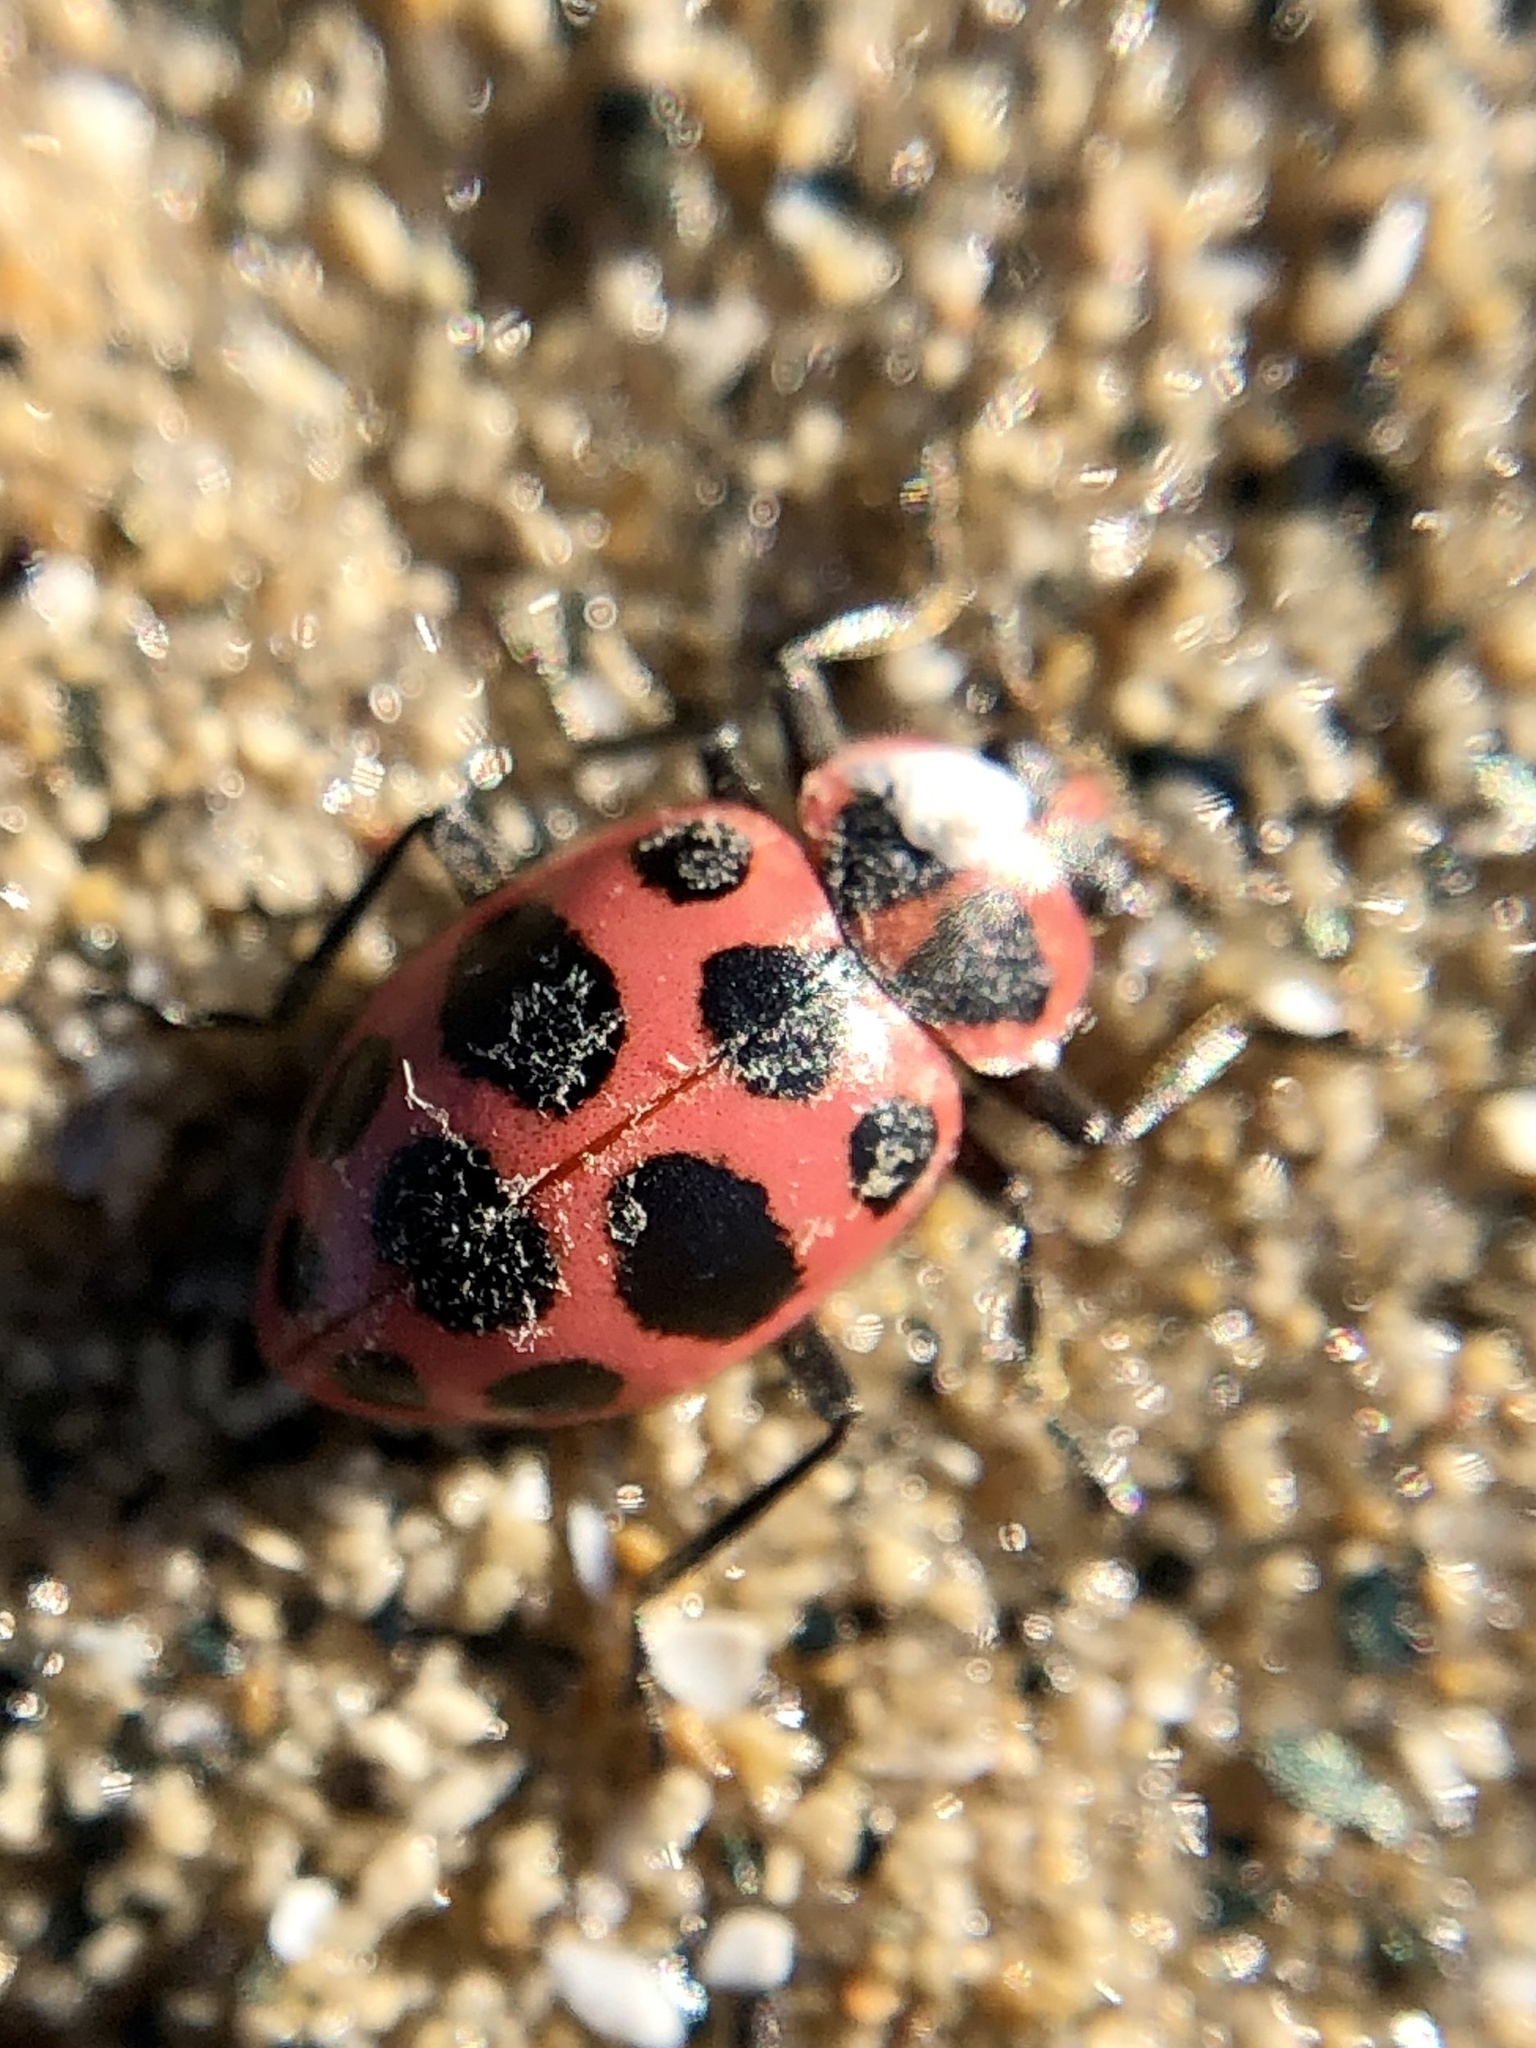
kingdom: Animalia
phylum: Arthropoda
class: Insecta
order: Coleoptera
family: Coccinellidae
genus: Coleomegilla
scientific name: Coleomegilla maculata
